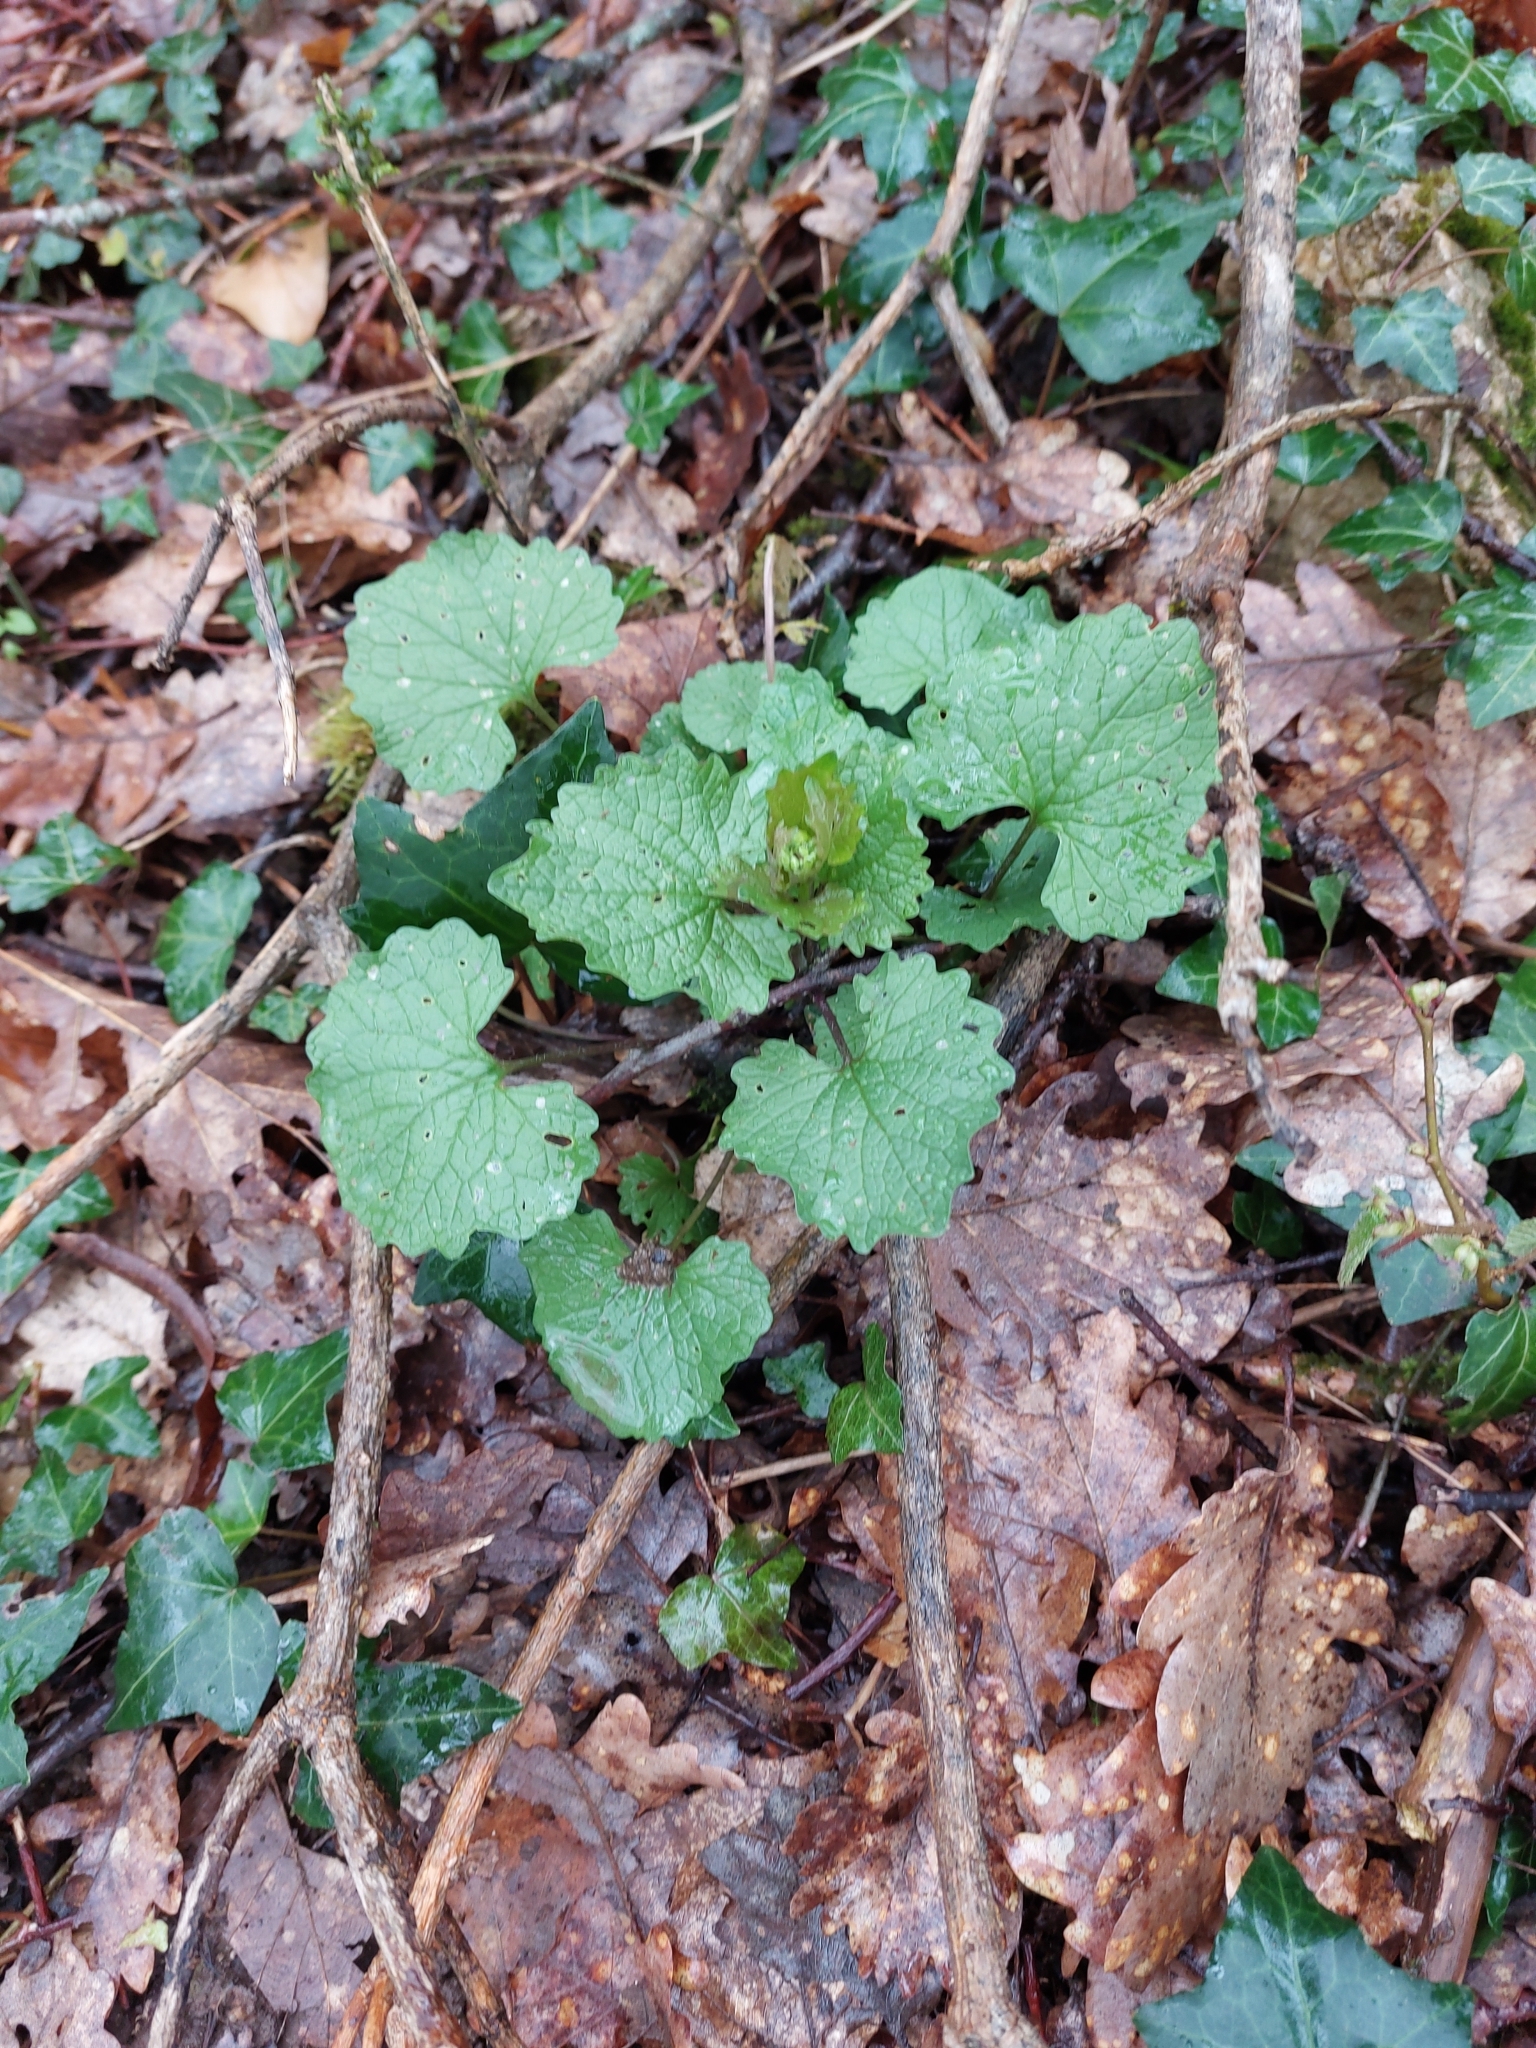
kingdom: Plantae
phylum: Tracheophyta
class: Magnoliopsida
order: Brassicales
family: Brassicaceae
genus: Alliaria
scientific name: Alliaria petiolata
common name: Garlic mustard
